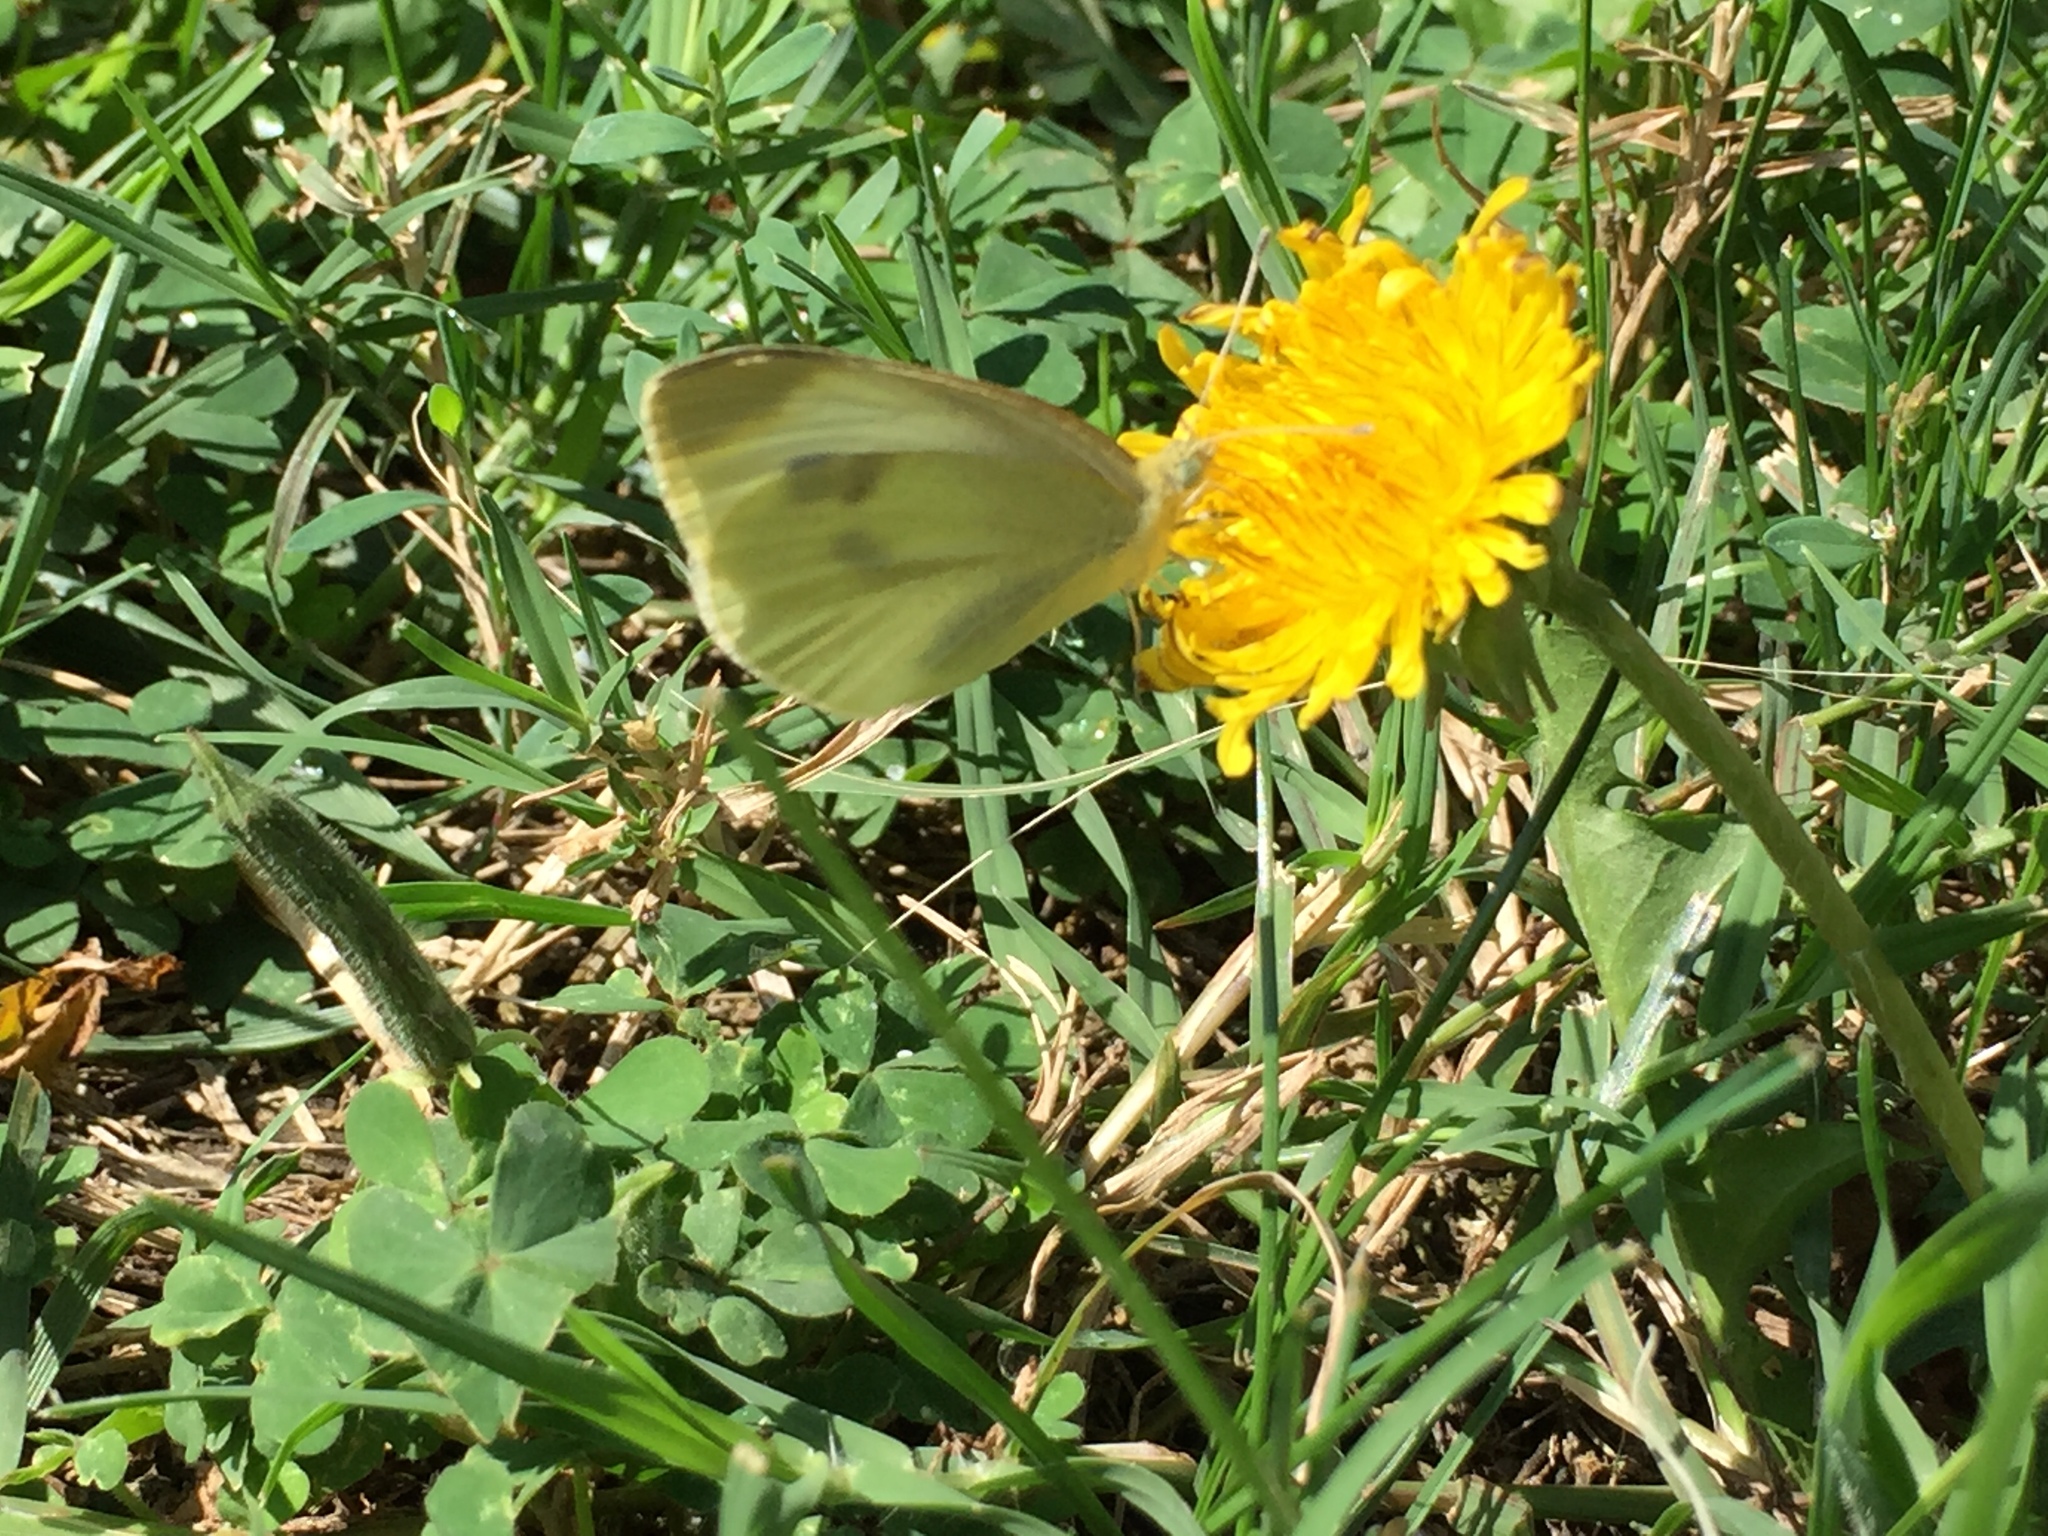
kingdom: Animalia
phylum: Arthropoda
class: Insecta
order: Lepidoptera
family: Pieridae
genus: Pieris
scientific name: Pieris rapae
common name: Small white
